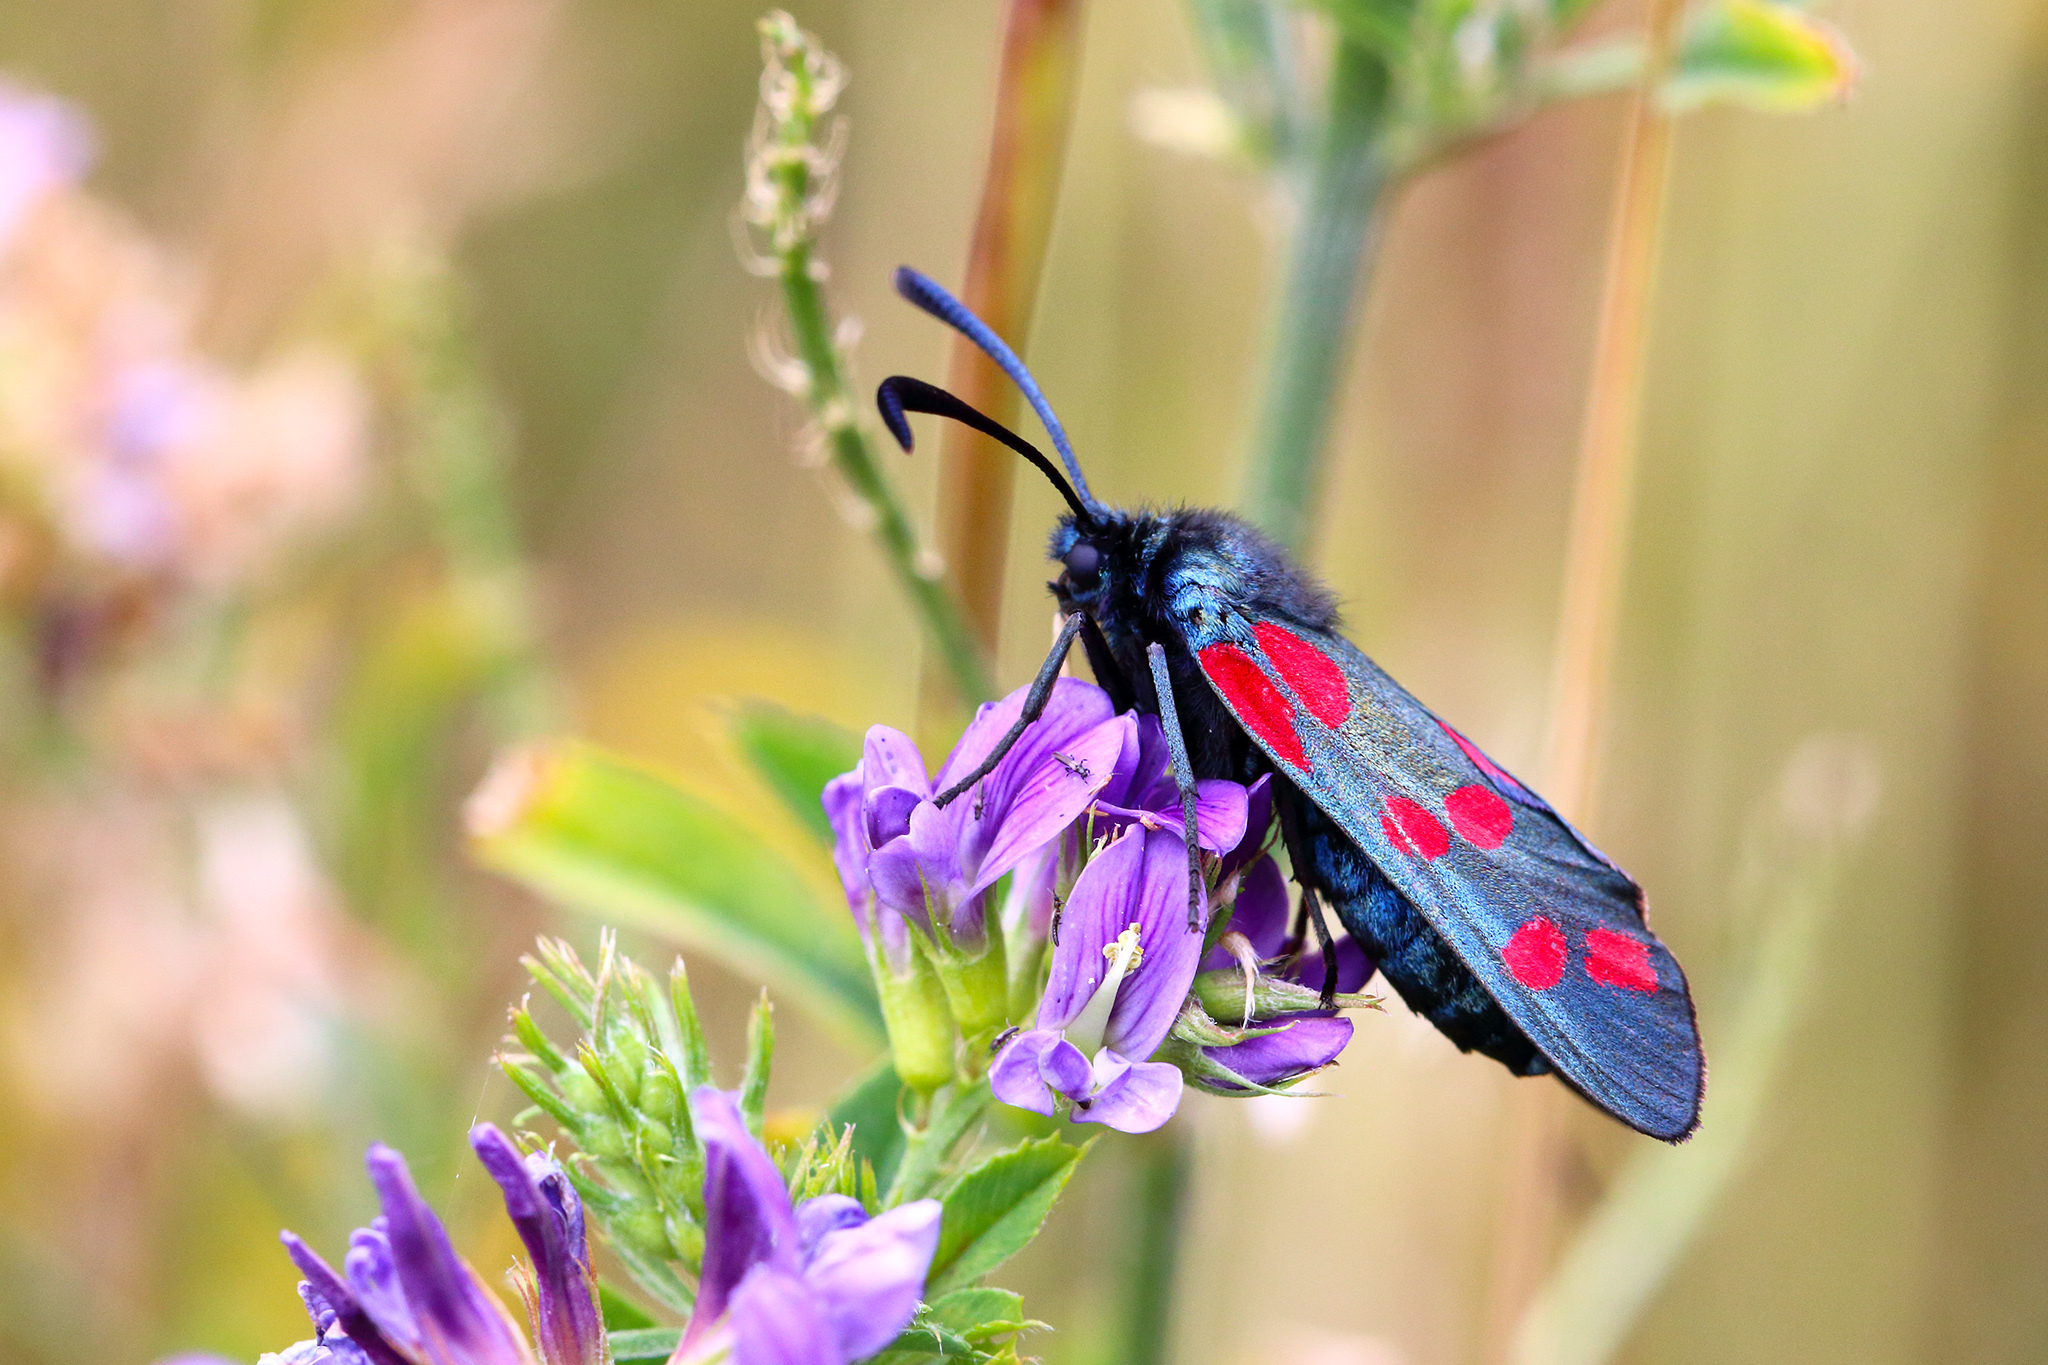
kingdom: Animalia
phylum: Arthropoda
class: Insecta
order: Lepidoptera
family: Zygaenidae
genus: Zygaena
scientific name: Zygaena filipendulae
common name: Six-spot burnet
